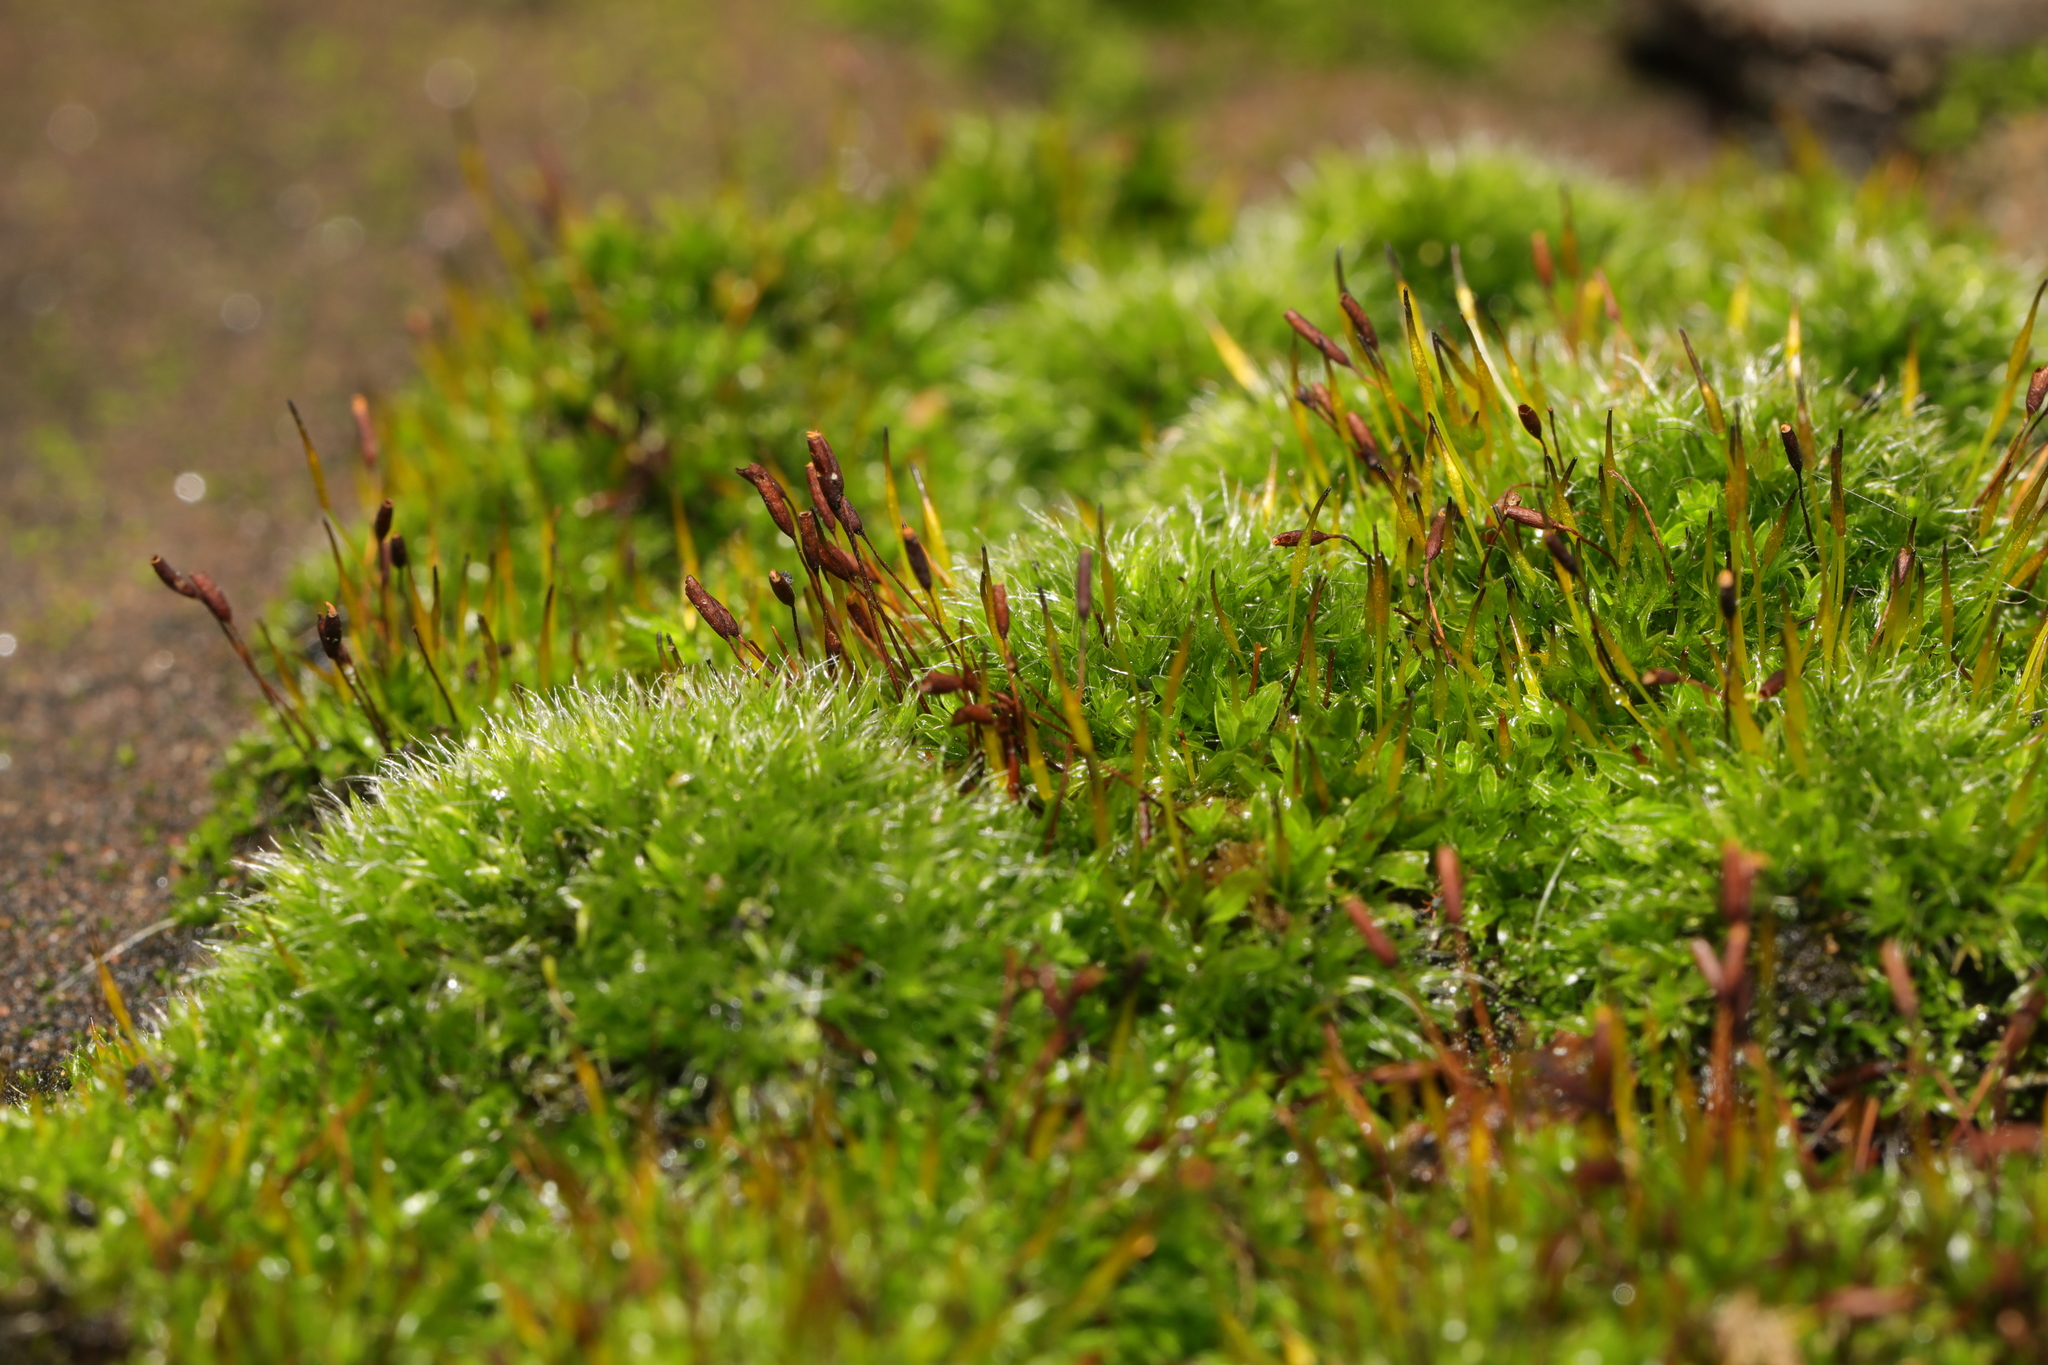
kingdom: Plantae
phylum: Bryophyta
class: Bryopsida
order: Pottiales
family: Pottiaceae
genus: Tortula
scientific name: Tortula muralis
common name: Wall screw-moss
